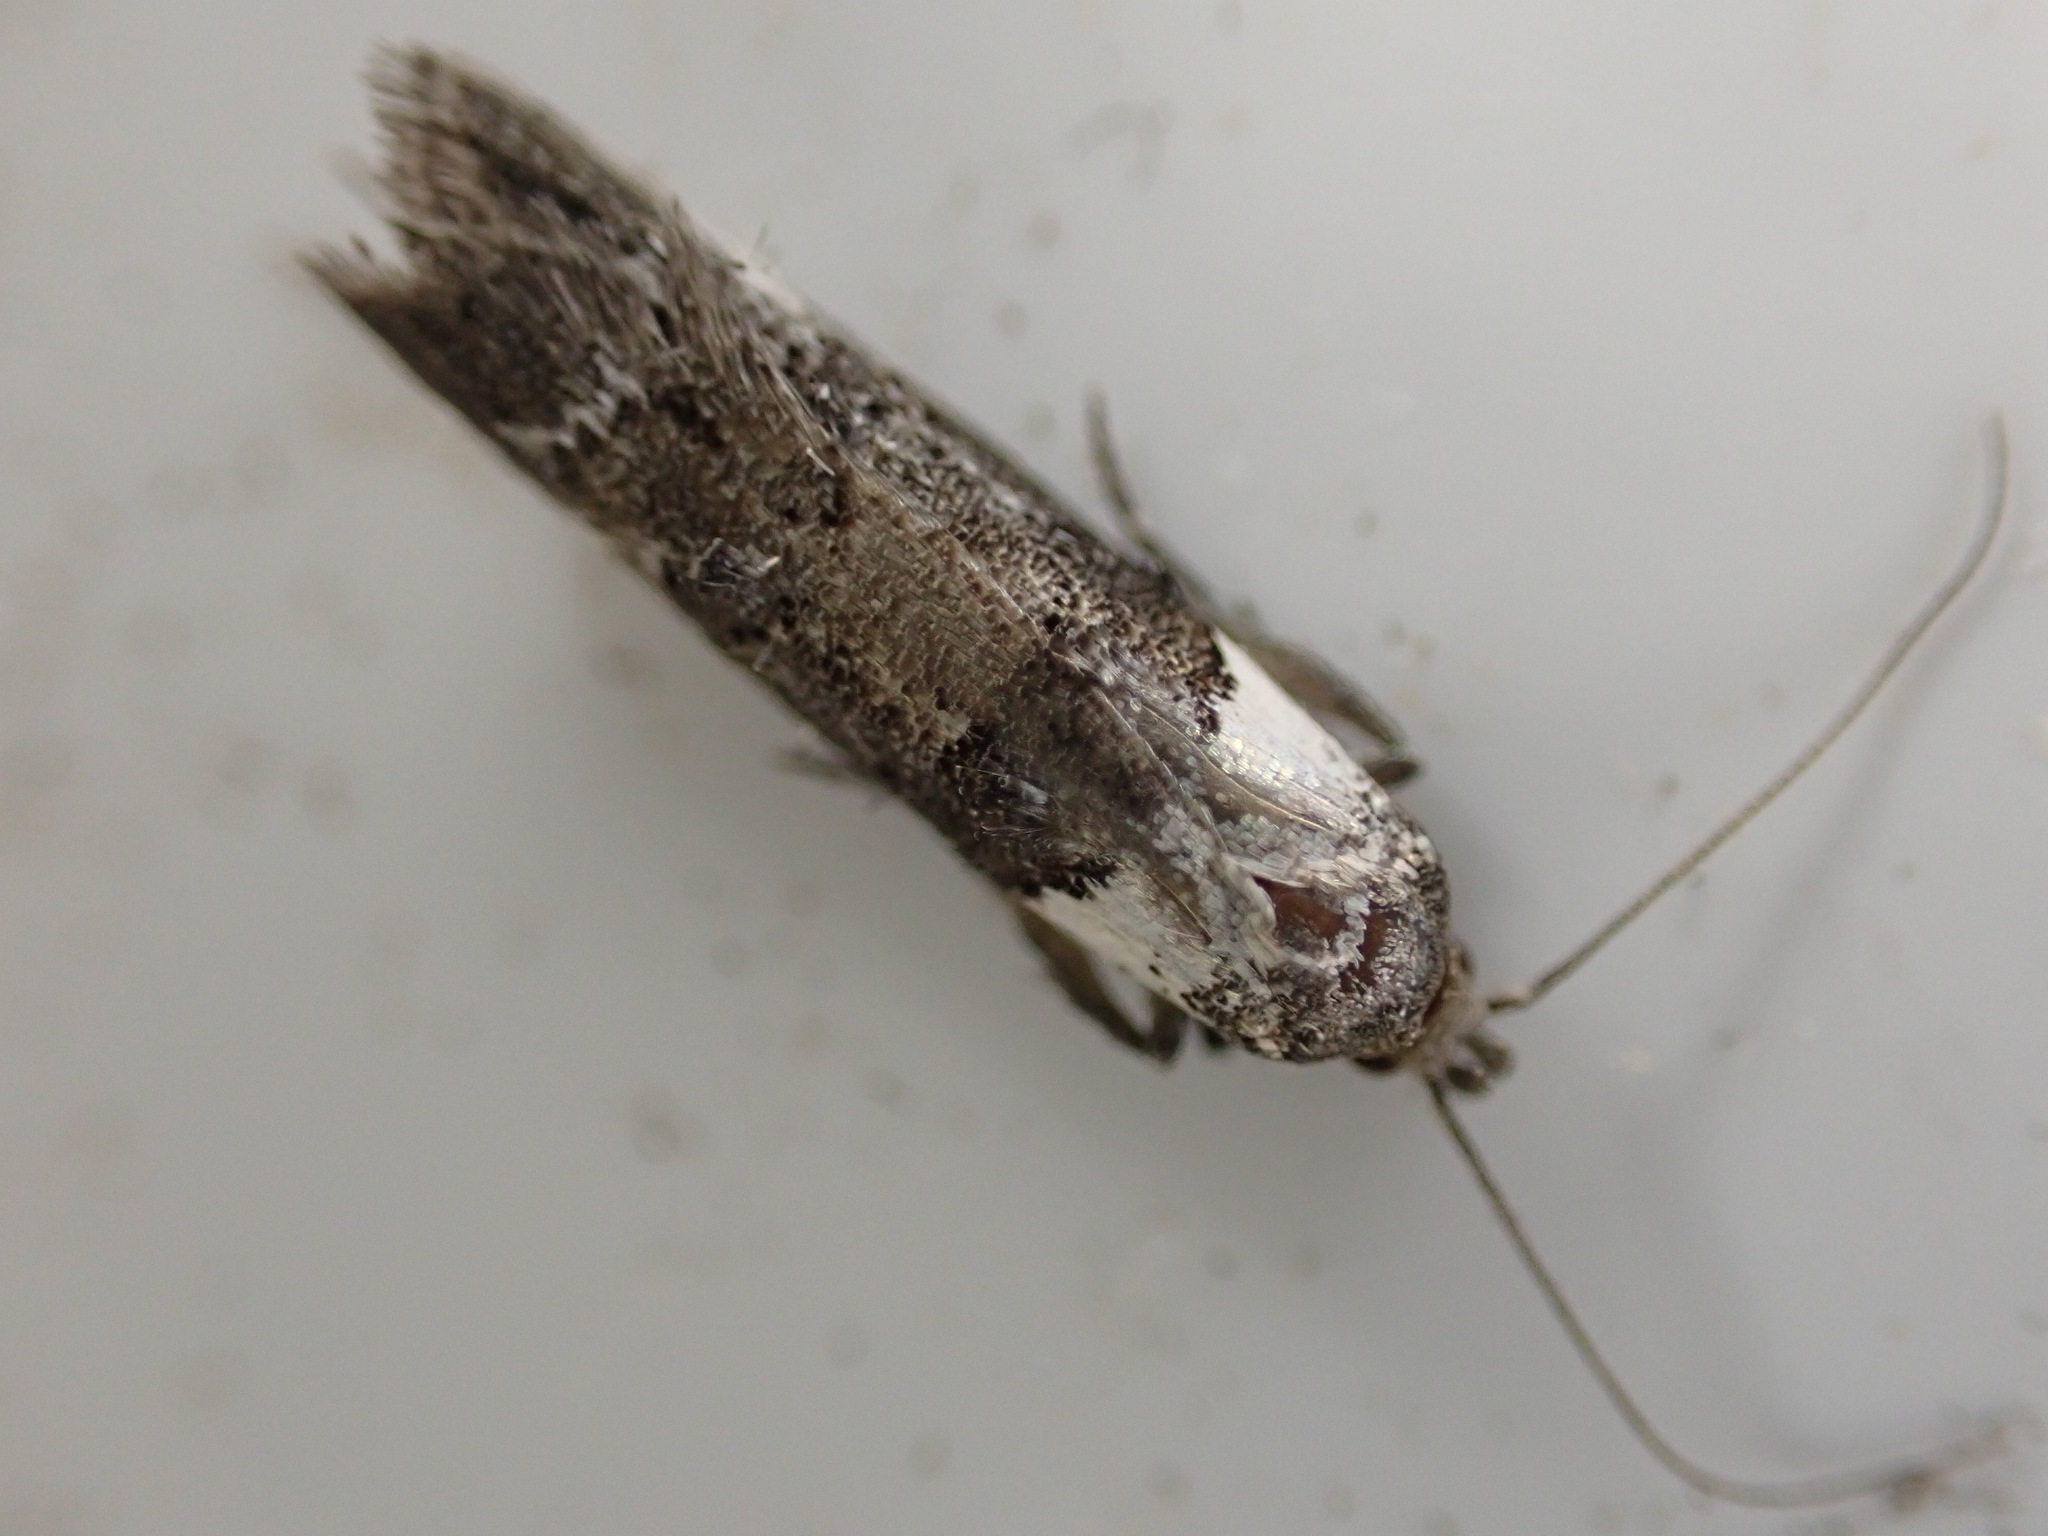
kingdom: Animalia
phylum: Arthropoda
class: Insecta
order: Lepidoptera
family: Oecophoridae
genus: Trachypepla
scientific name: Trachypepla conspicuella
